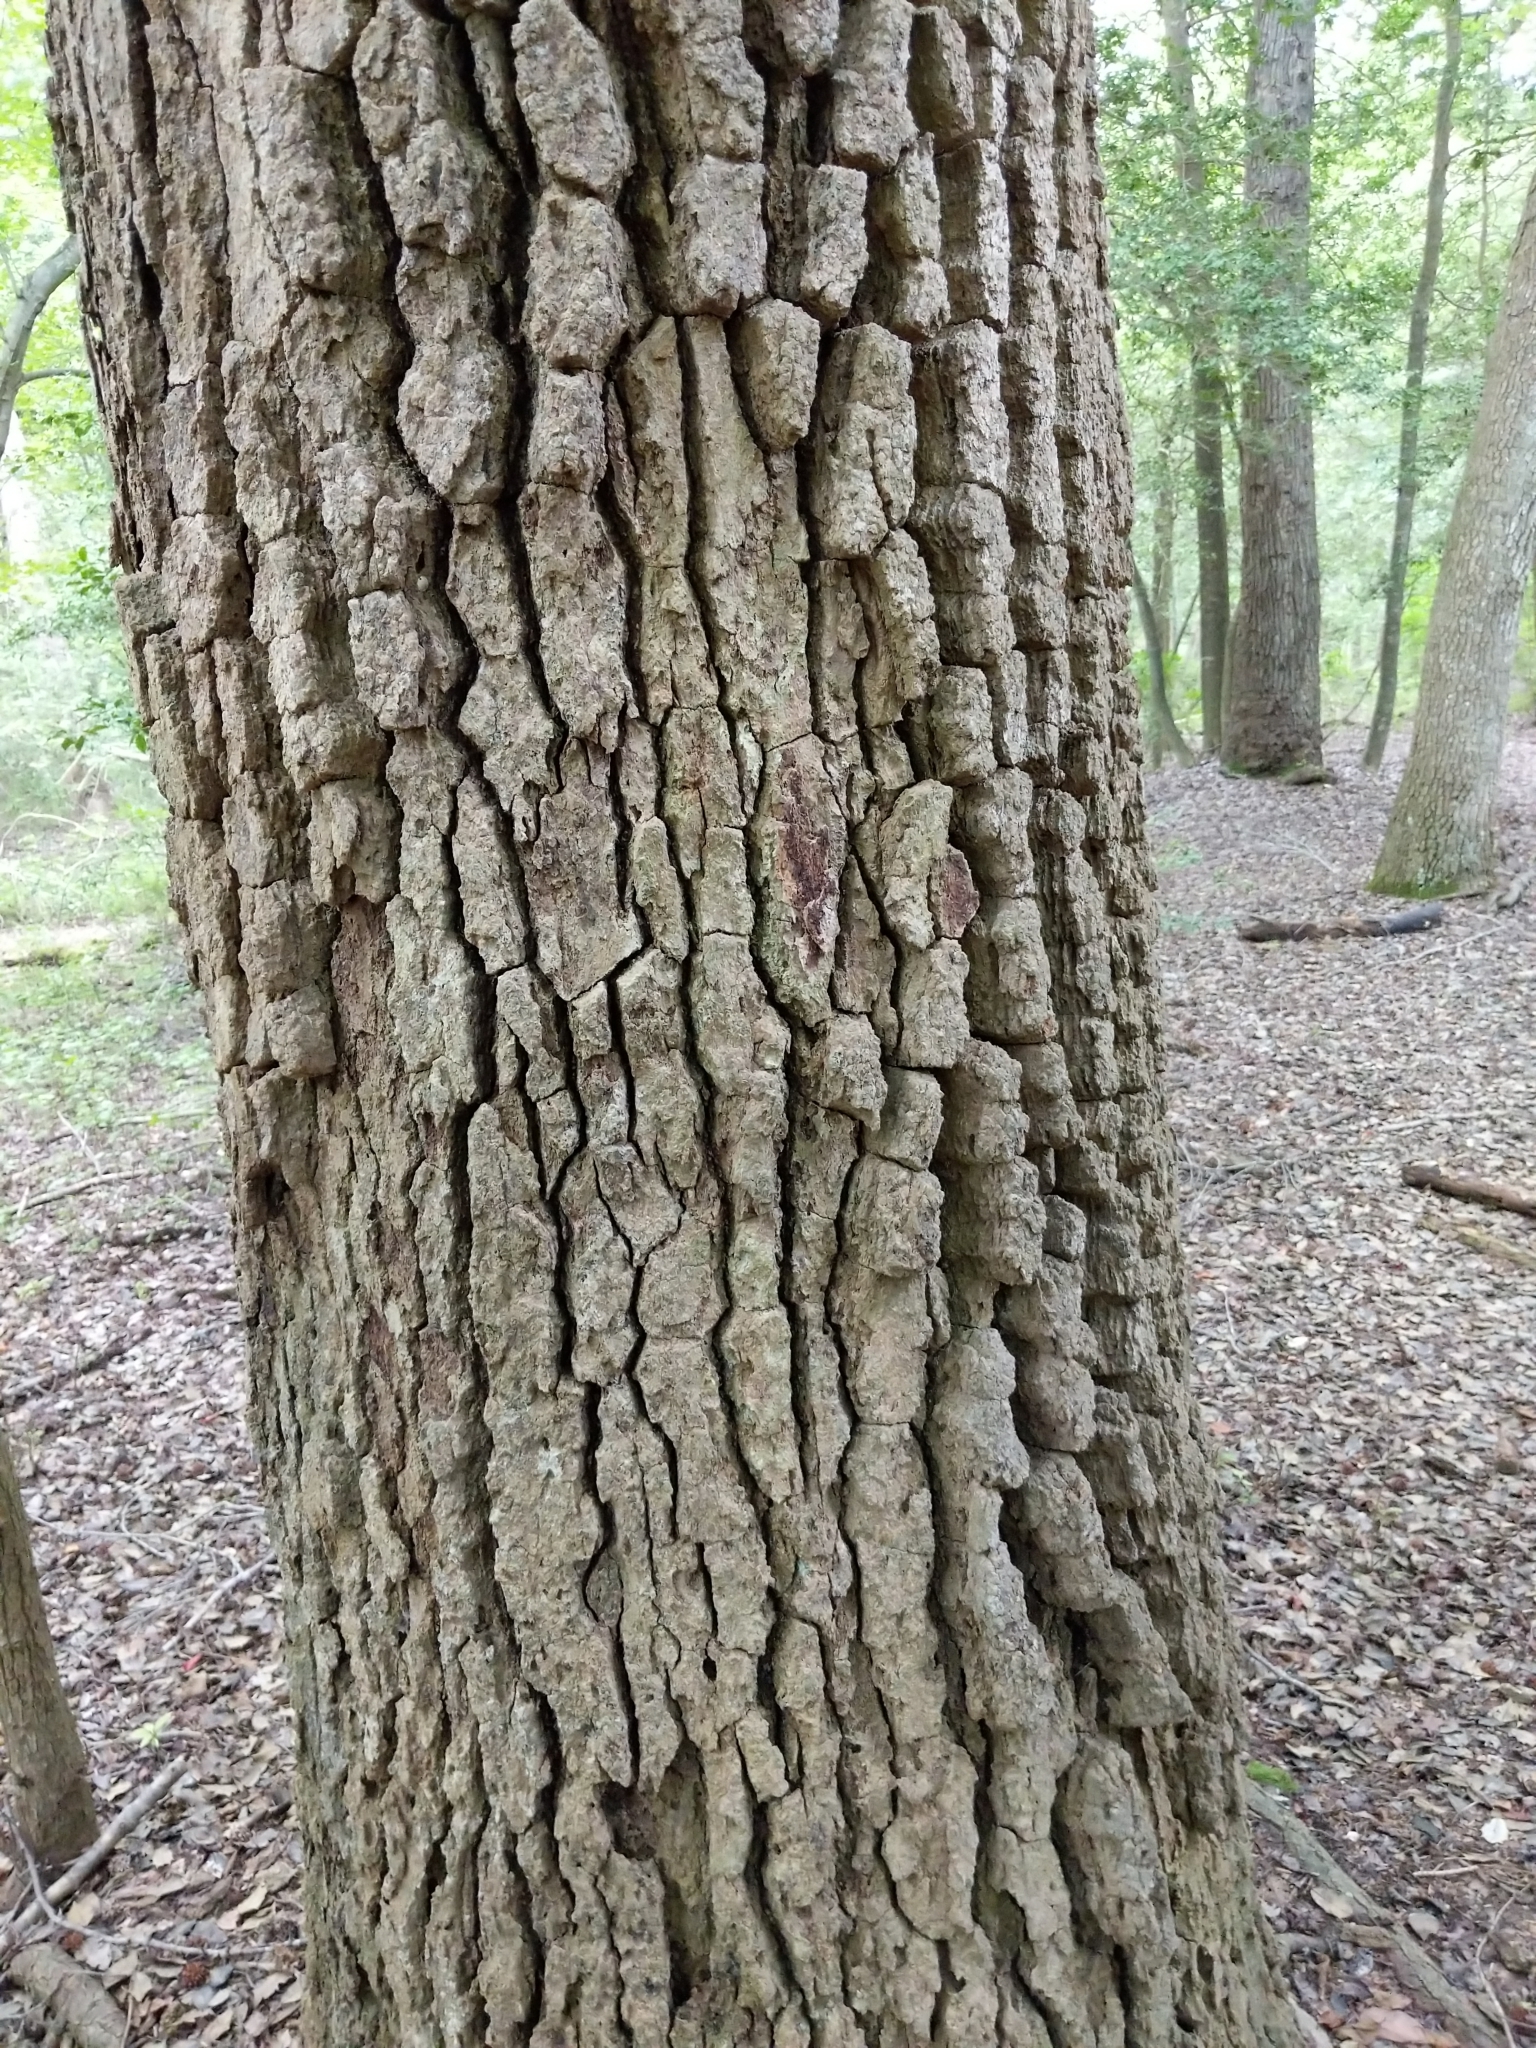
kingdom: Plantae
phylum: Tracheophyta
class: Magnoliopsida
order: Cornales
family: Nyssaceae
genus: Nyssa
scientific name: Nyssa sylvatica
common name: Black tupelo
